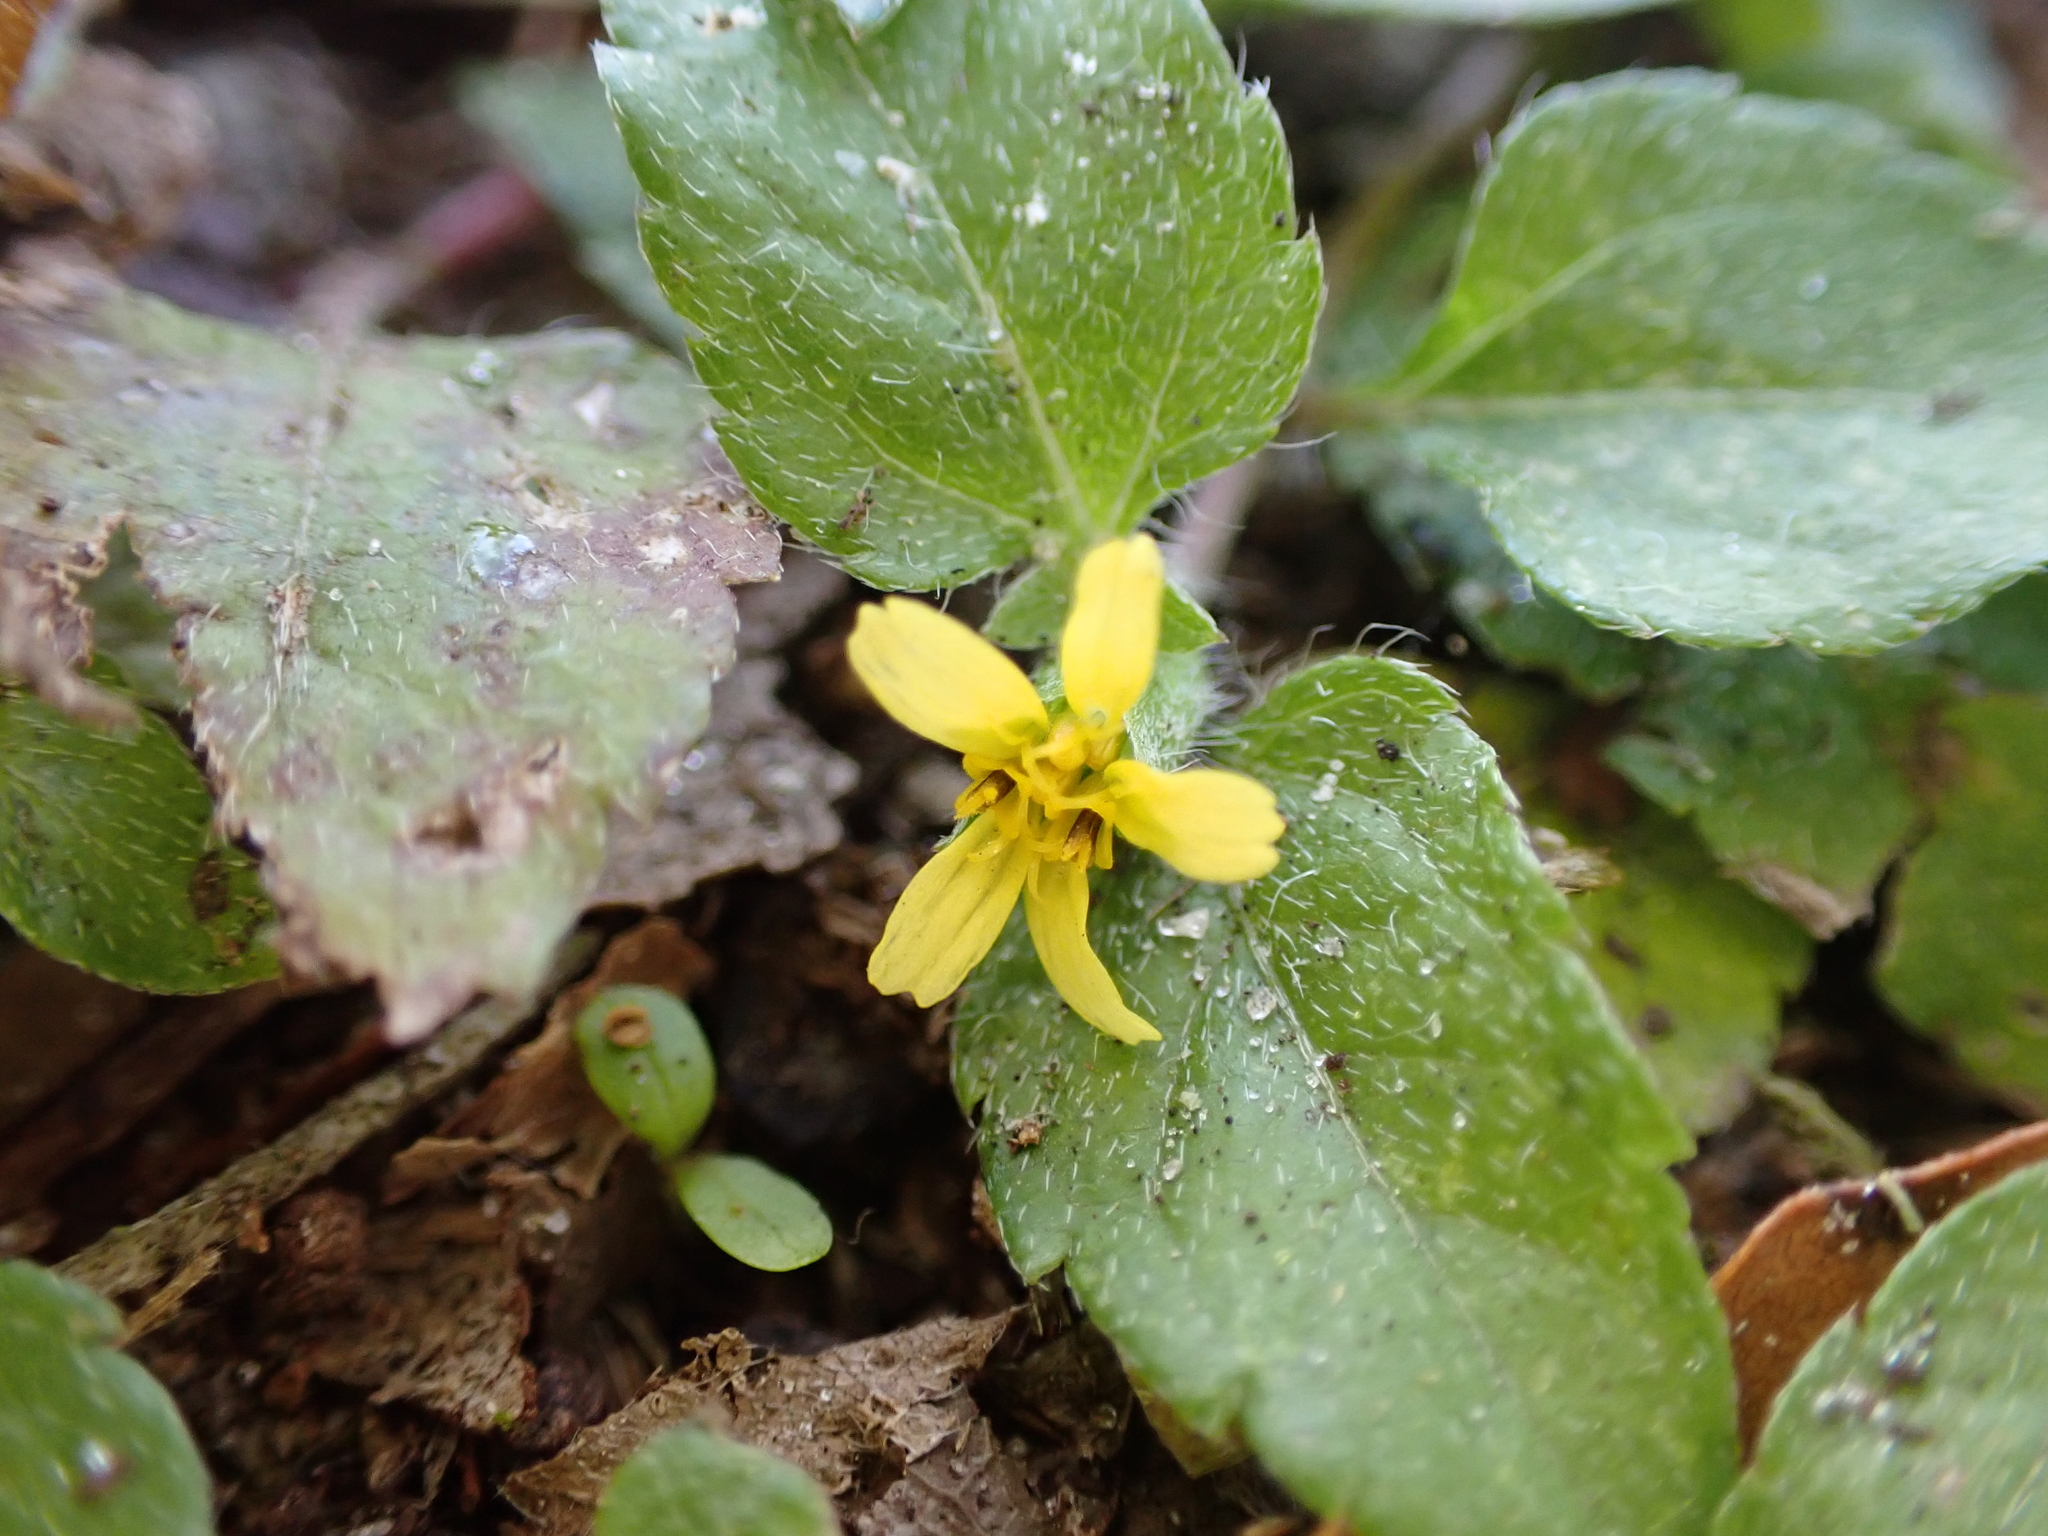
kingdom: Plantae
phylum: Tracheophyta
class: Magnoliopsida
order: Asterales
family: Asteraceae
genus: Calyptocarpus
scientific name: Calyptocarpus vialis
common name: Straggler daisy
